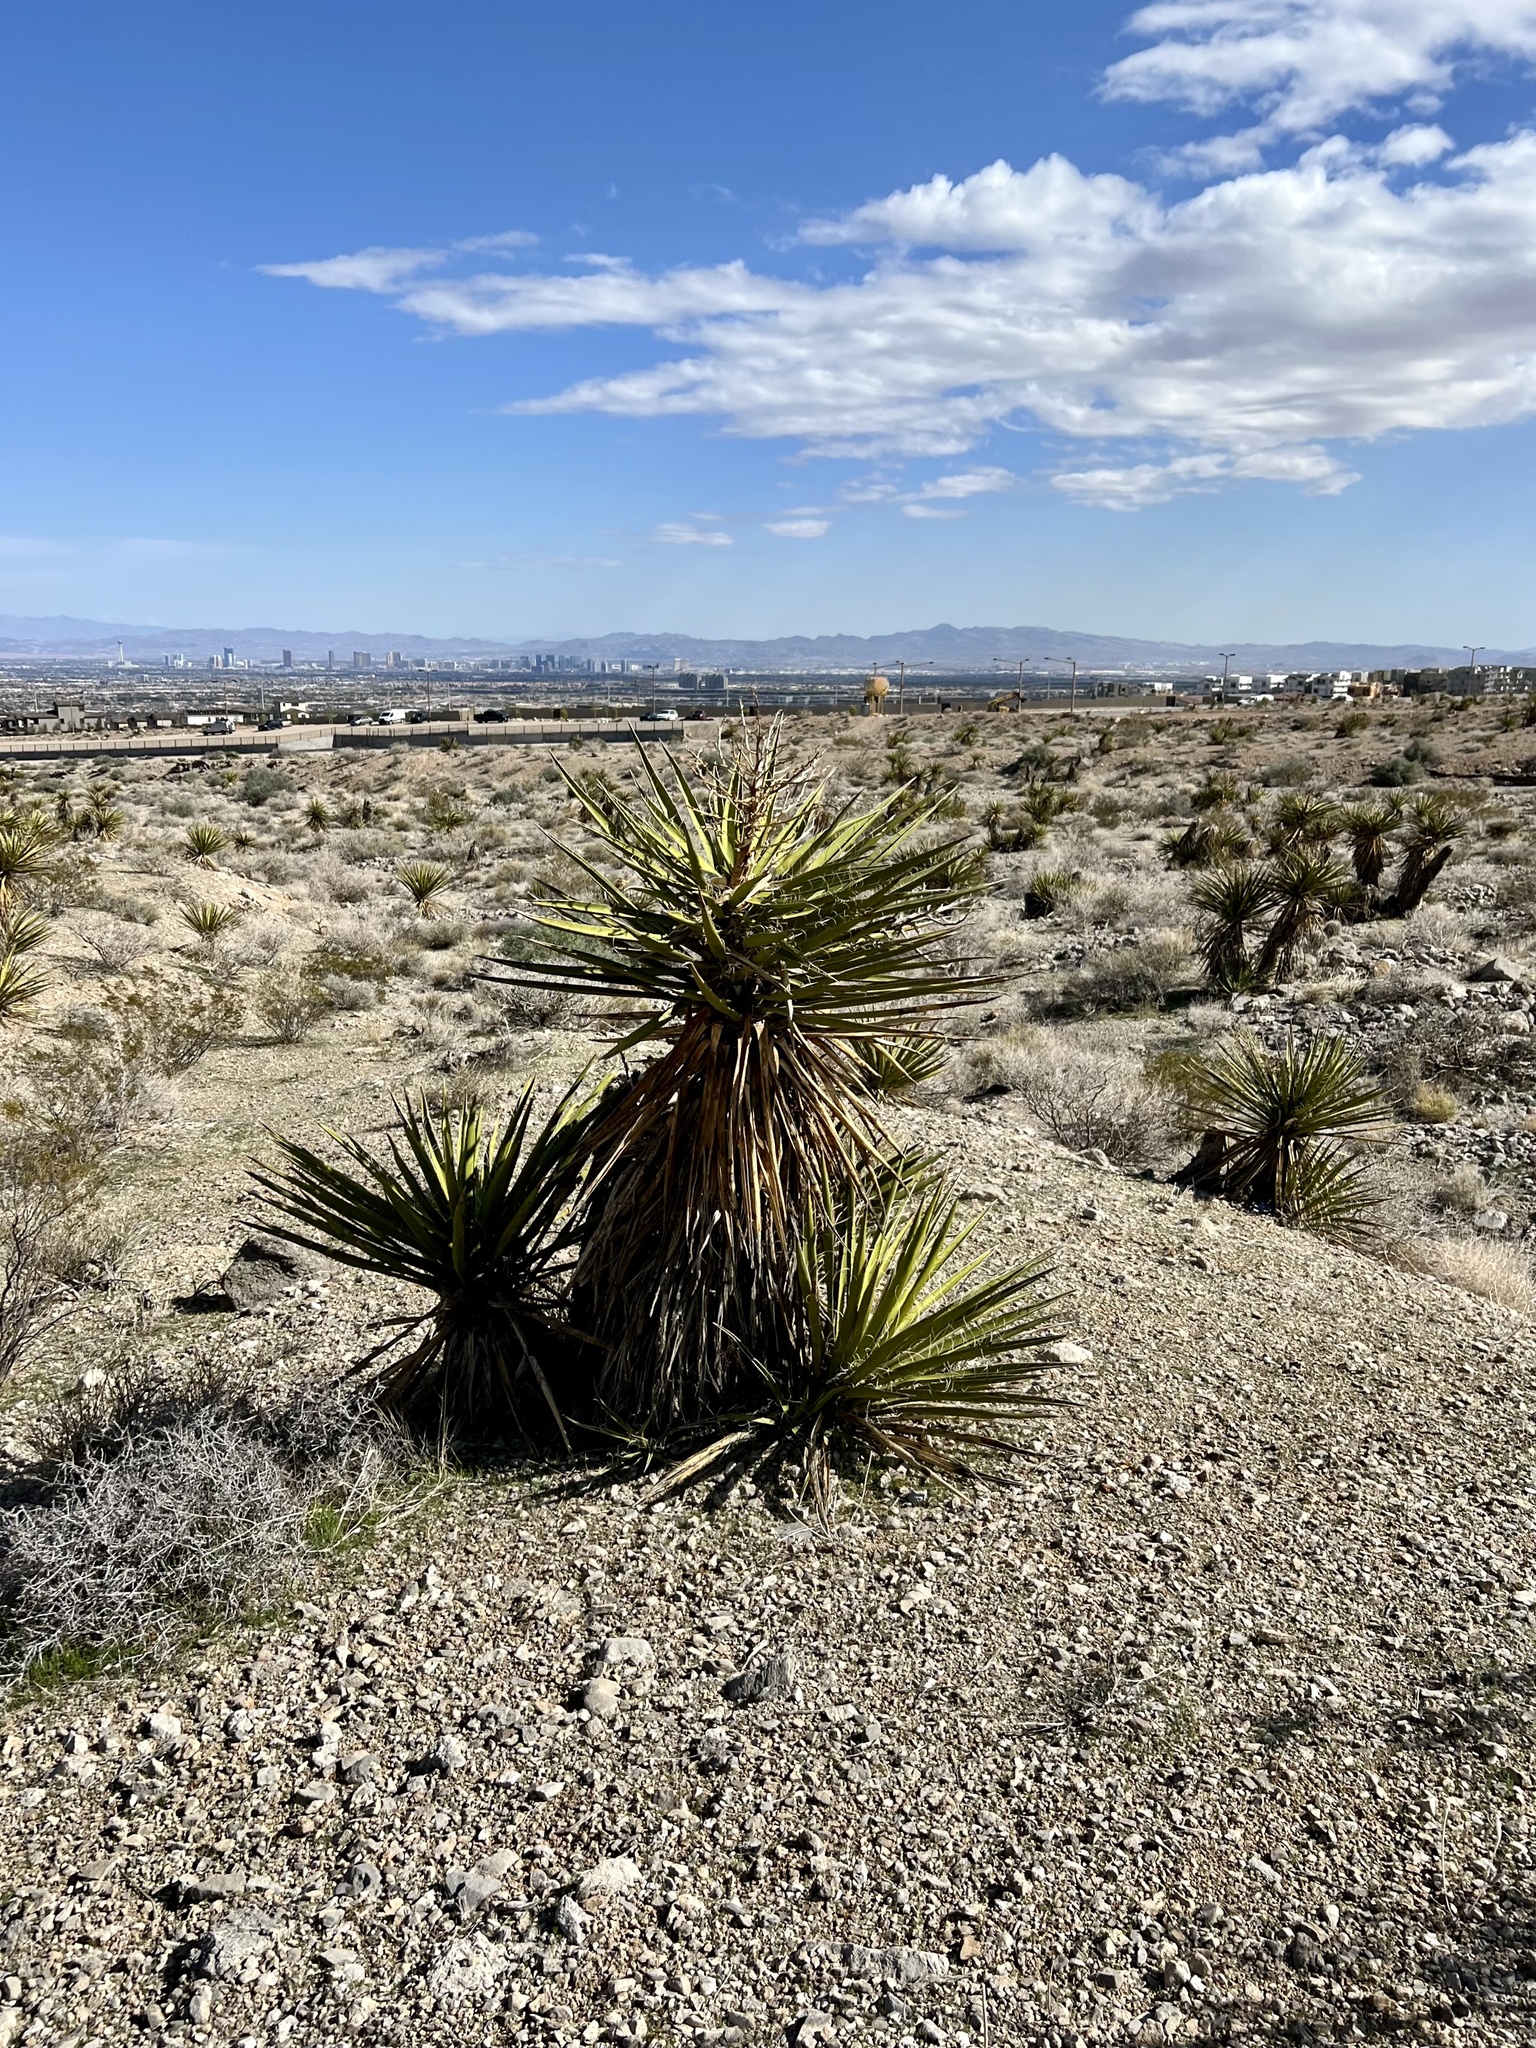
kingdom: Plantae
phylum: Tracheophyta
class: Liliopsida
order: Asparagales
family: Asparagaceae
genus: Yucca
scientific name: Yucca schidigera
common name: Mojave yucca
